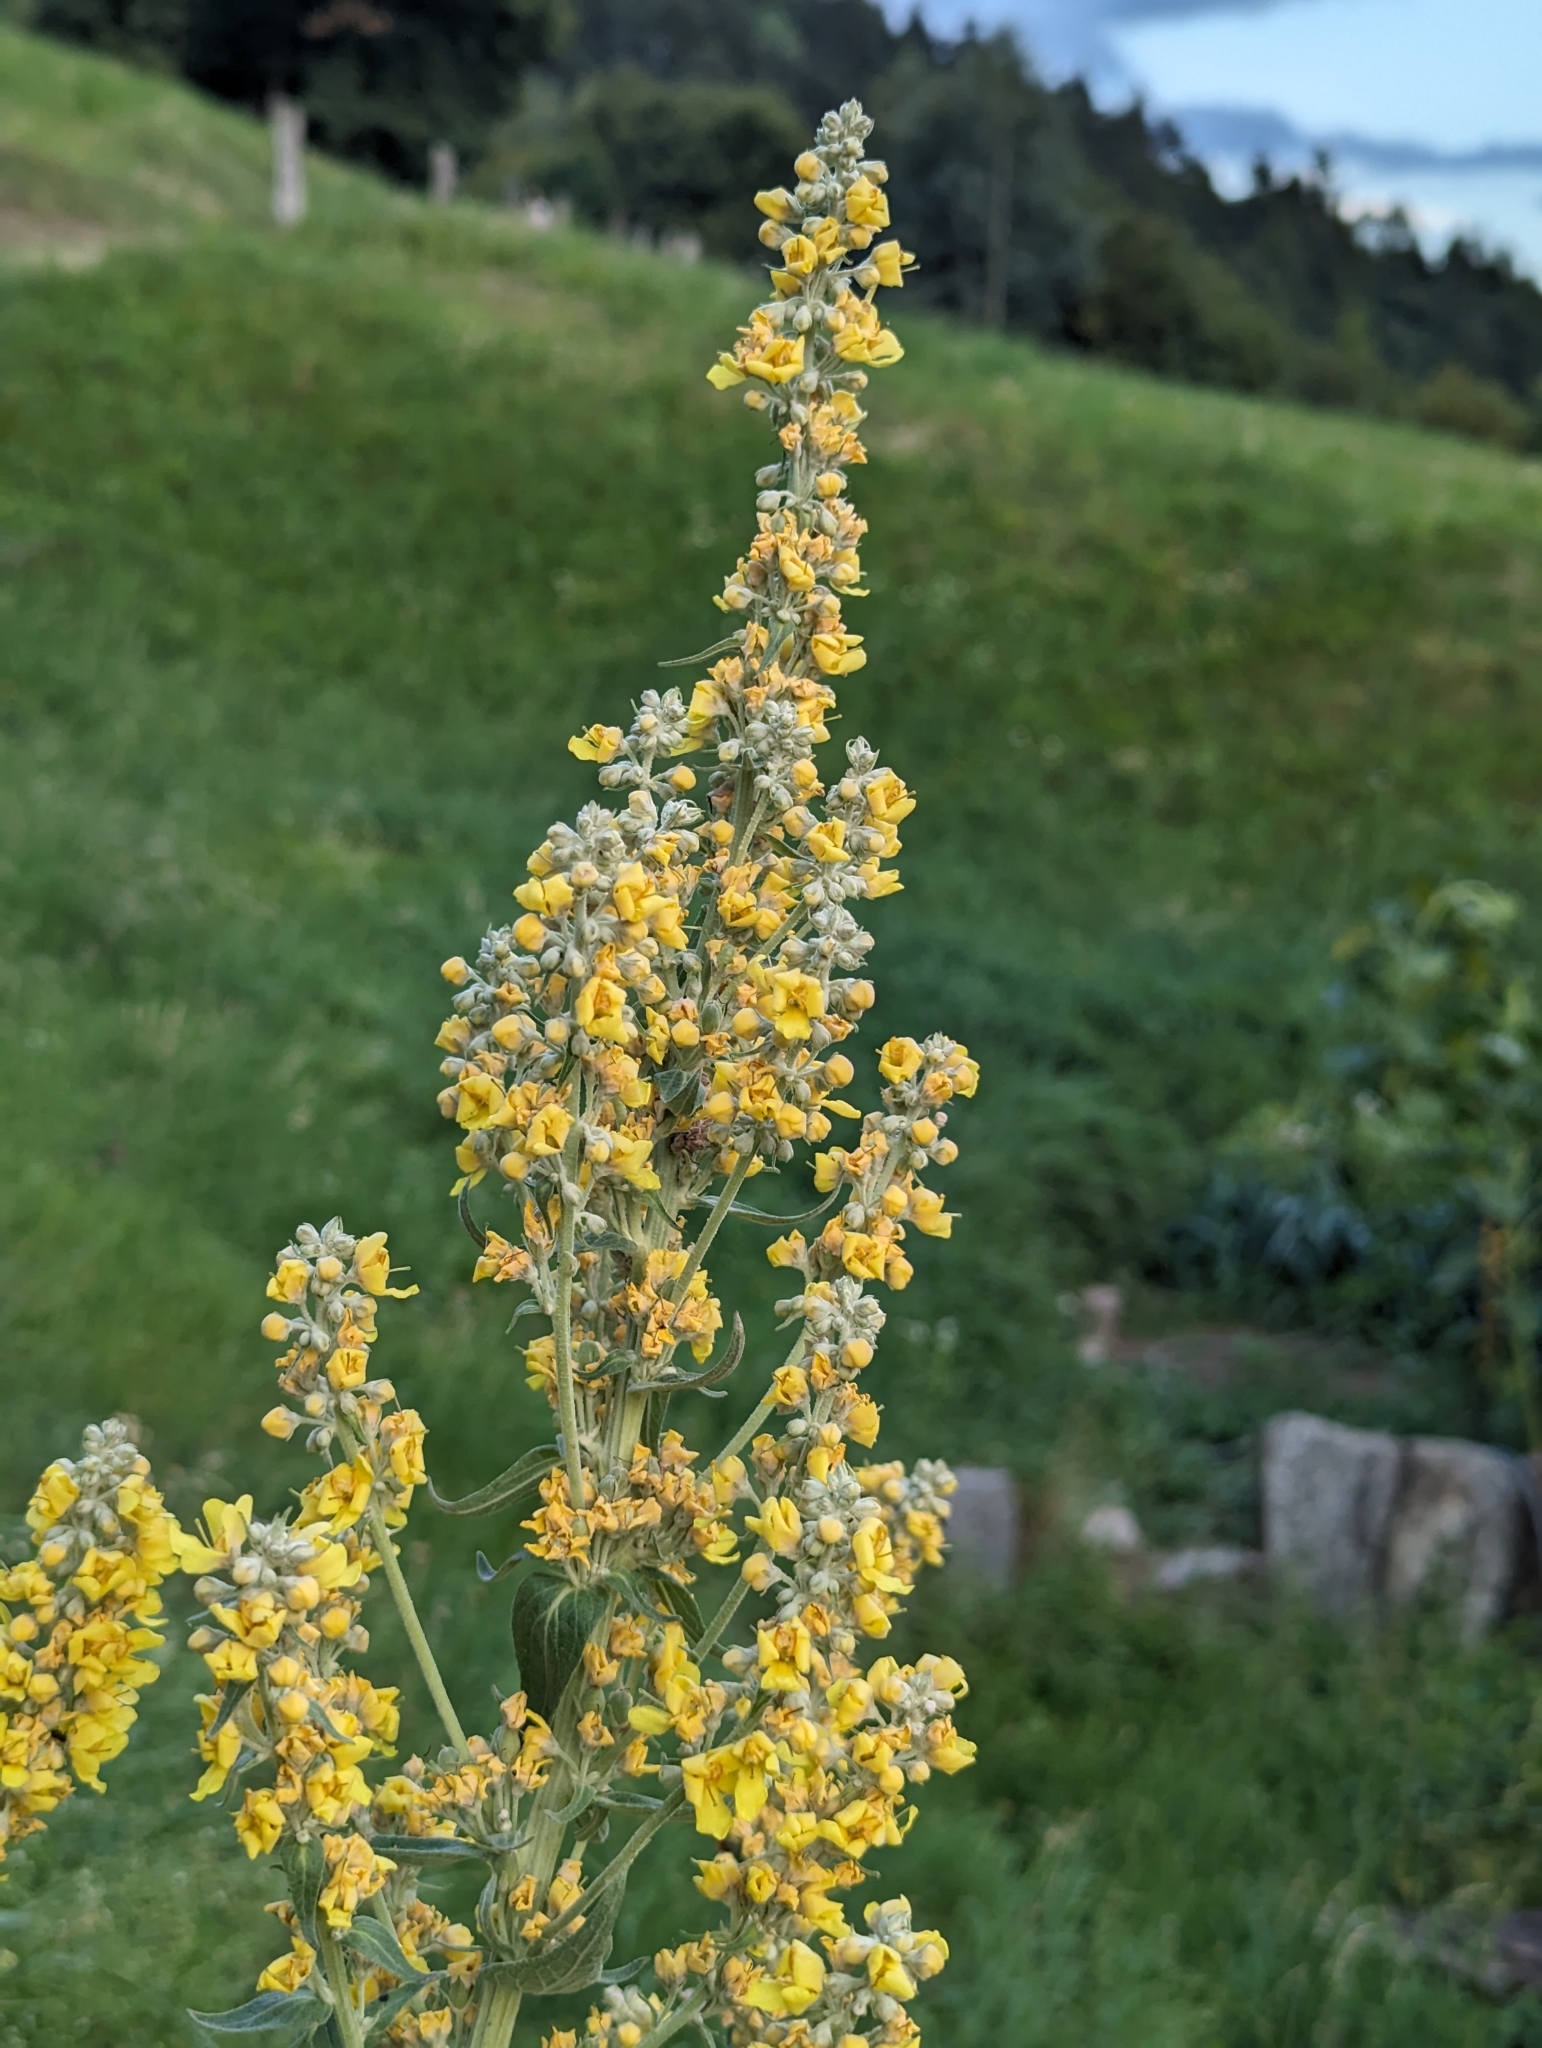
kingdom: Plantae
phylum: Tracheophyta
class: Magnoliopsida
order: Lamiales
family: Scrophulariaceae
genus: Verbascum
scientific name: Verbascum lychnitis
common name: White mullein
